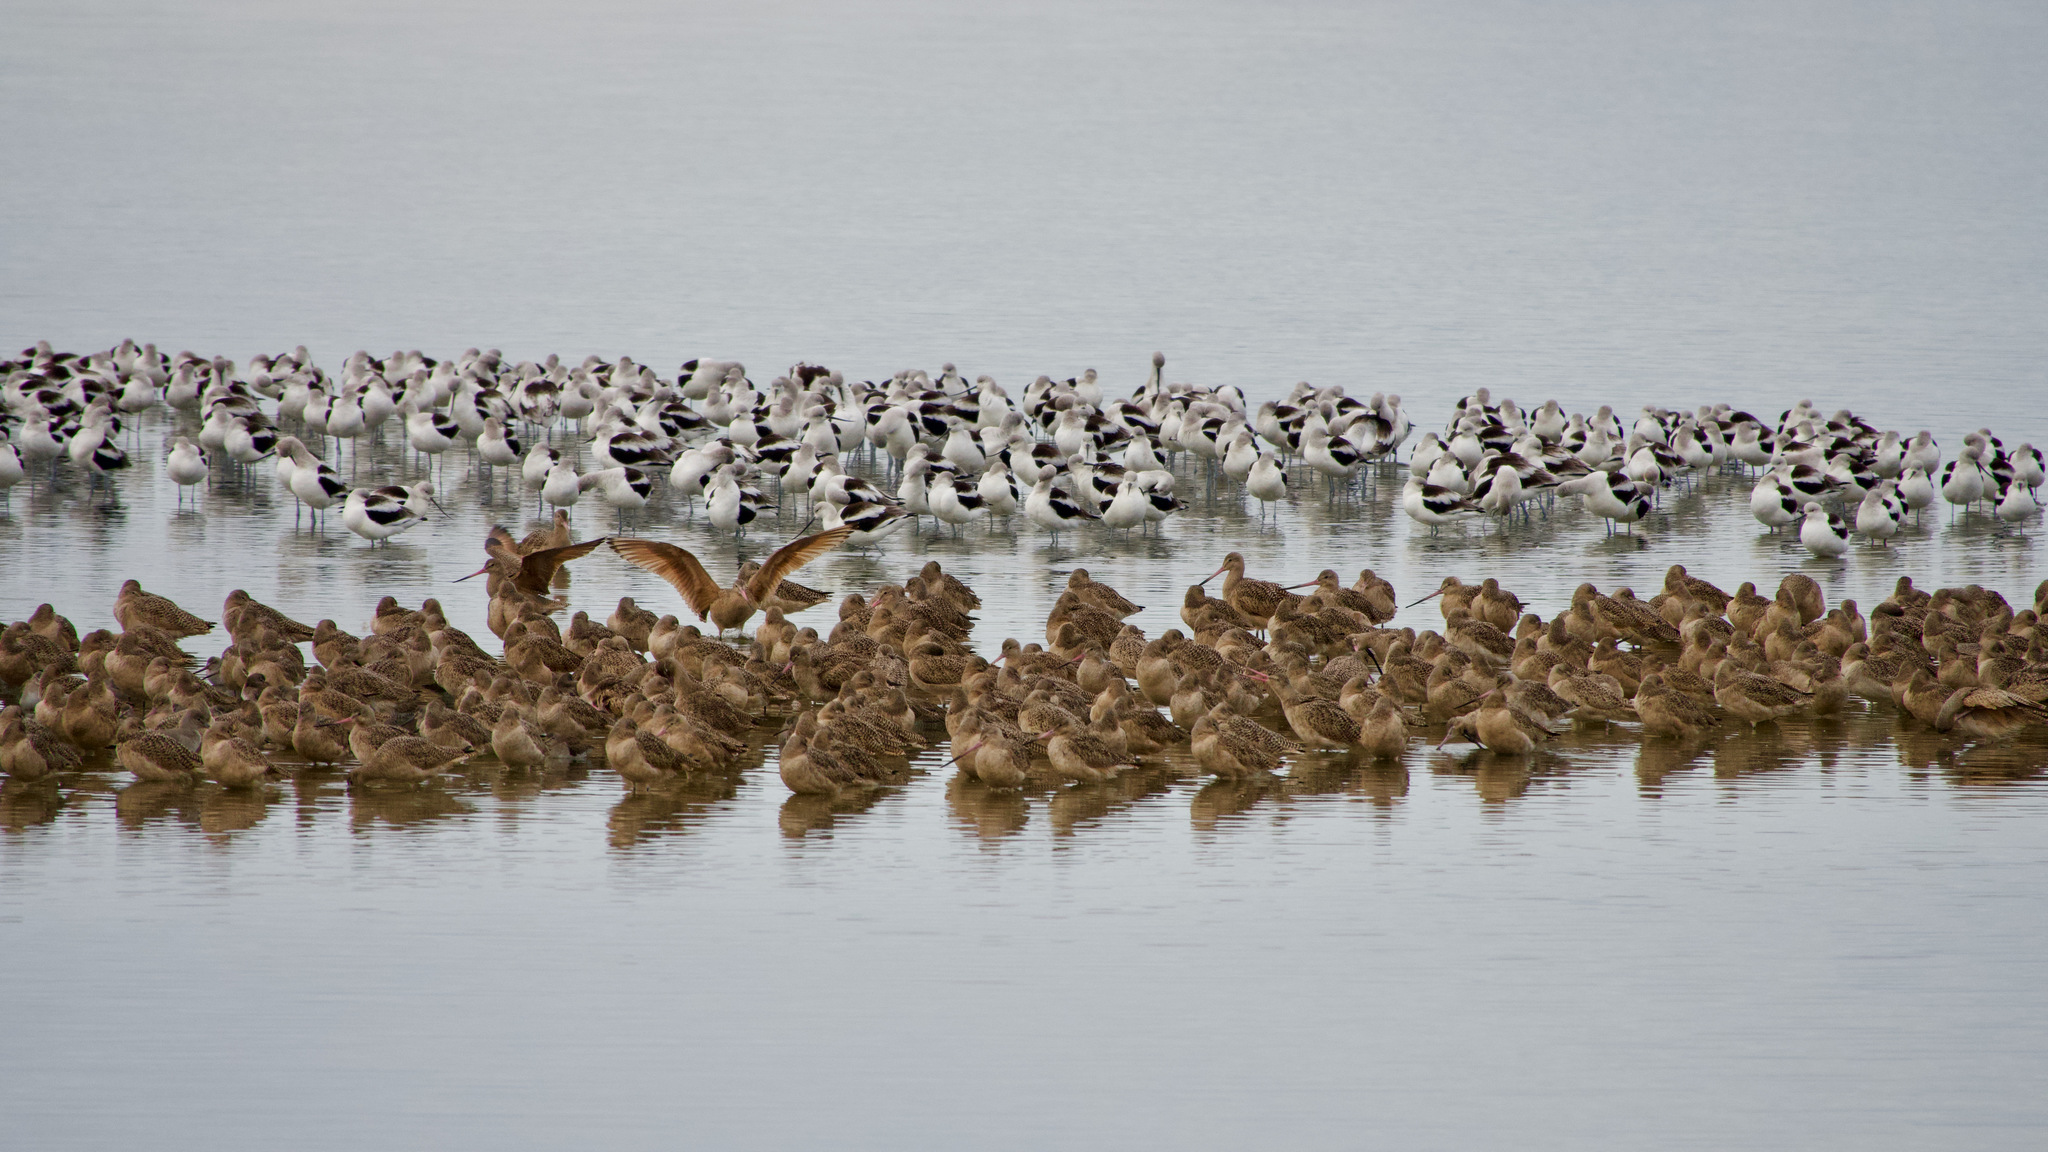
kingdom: Animalia
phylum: Chordata
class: Aves
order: Charadriiformes
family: Scolopacidae
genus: Limosa
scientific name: Limosa fedoa
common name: Marbled godwit
